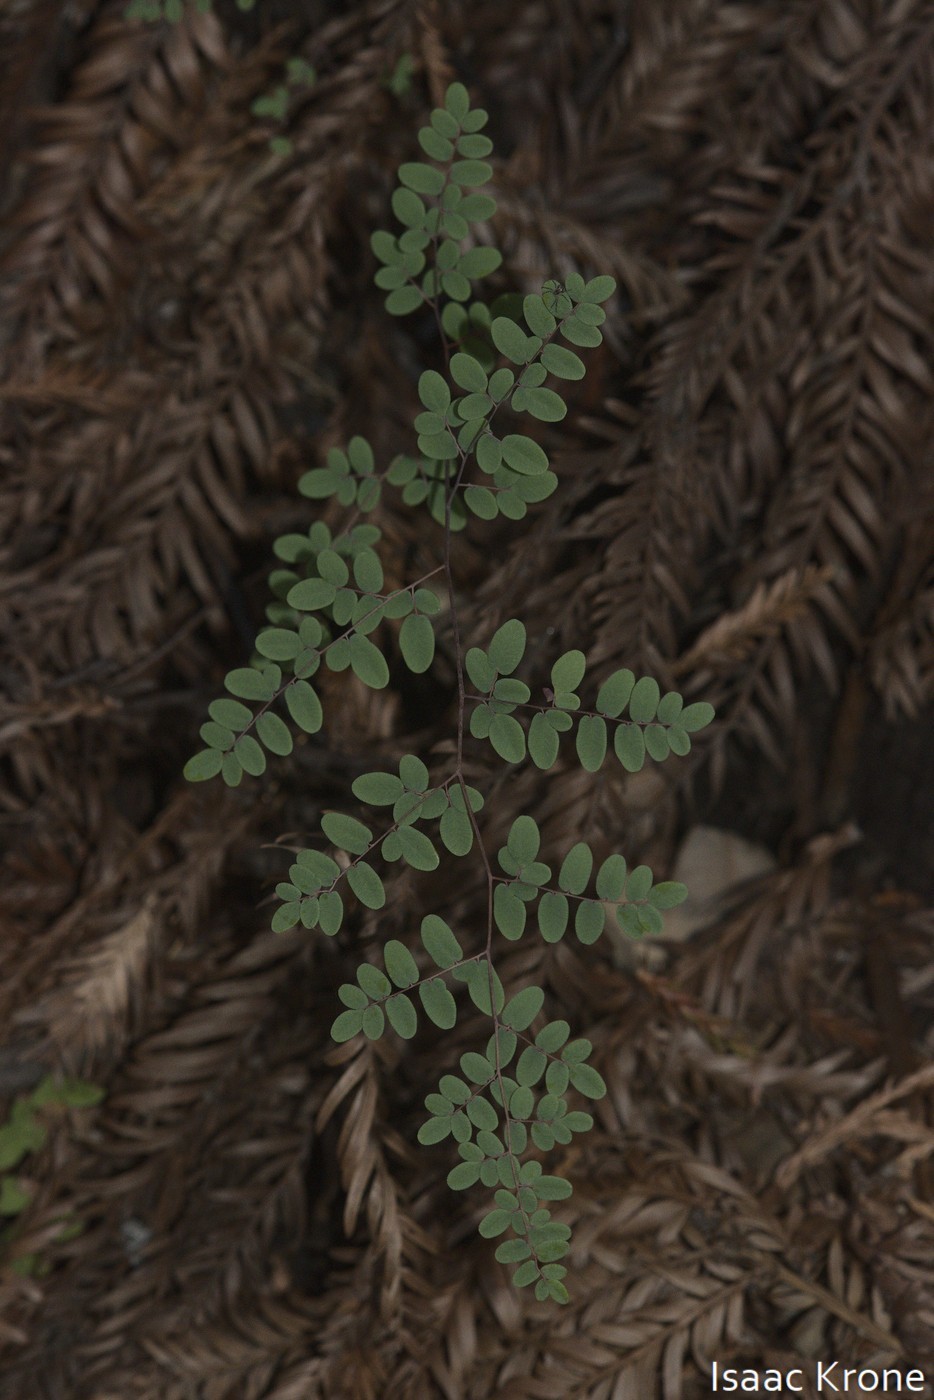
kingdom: Plantae
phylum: Tracheophyta
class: Polypodiopsida
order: Polypodiales
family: Pteridaceae
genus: Pellaea
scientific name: Pellaea andromedifolia
